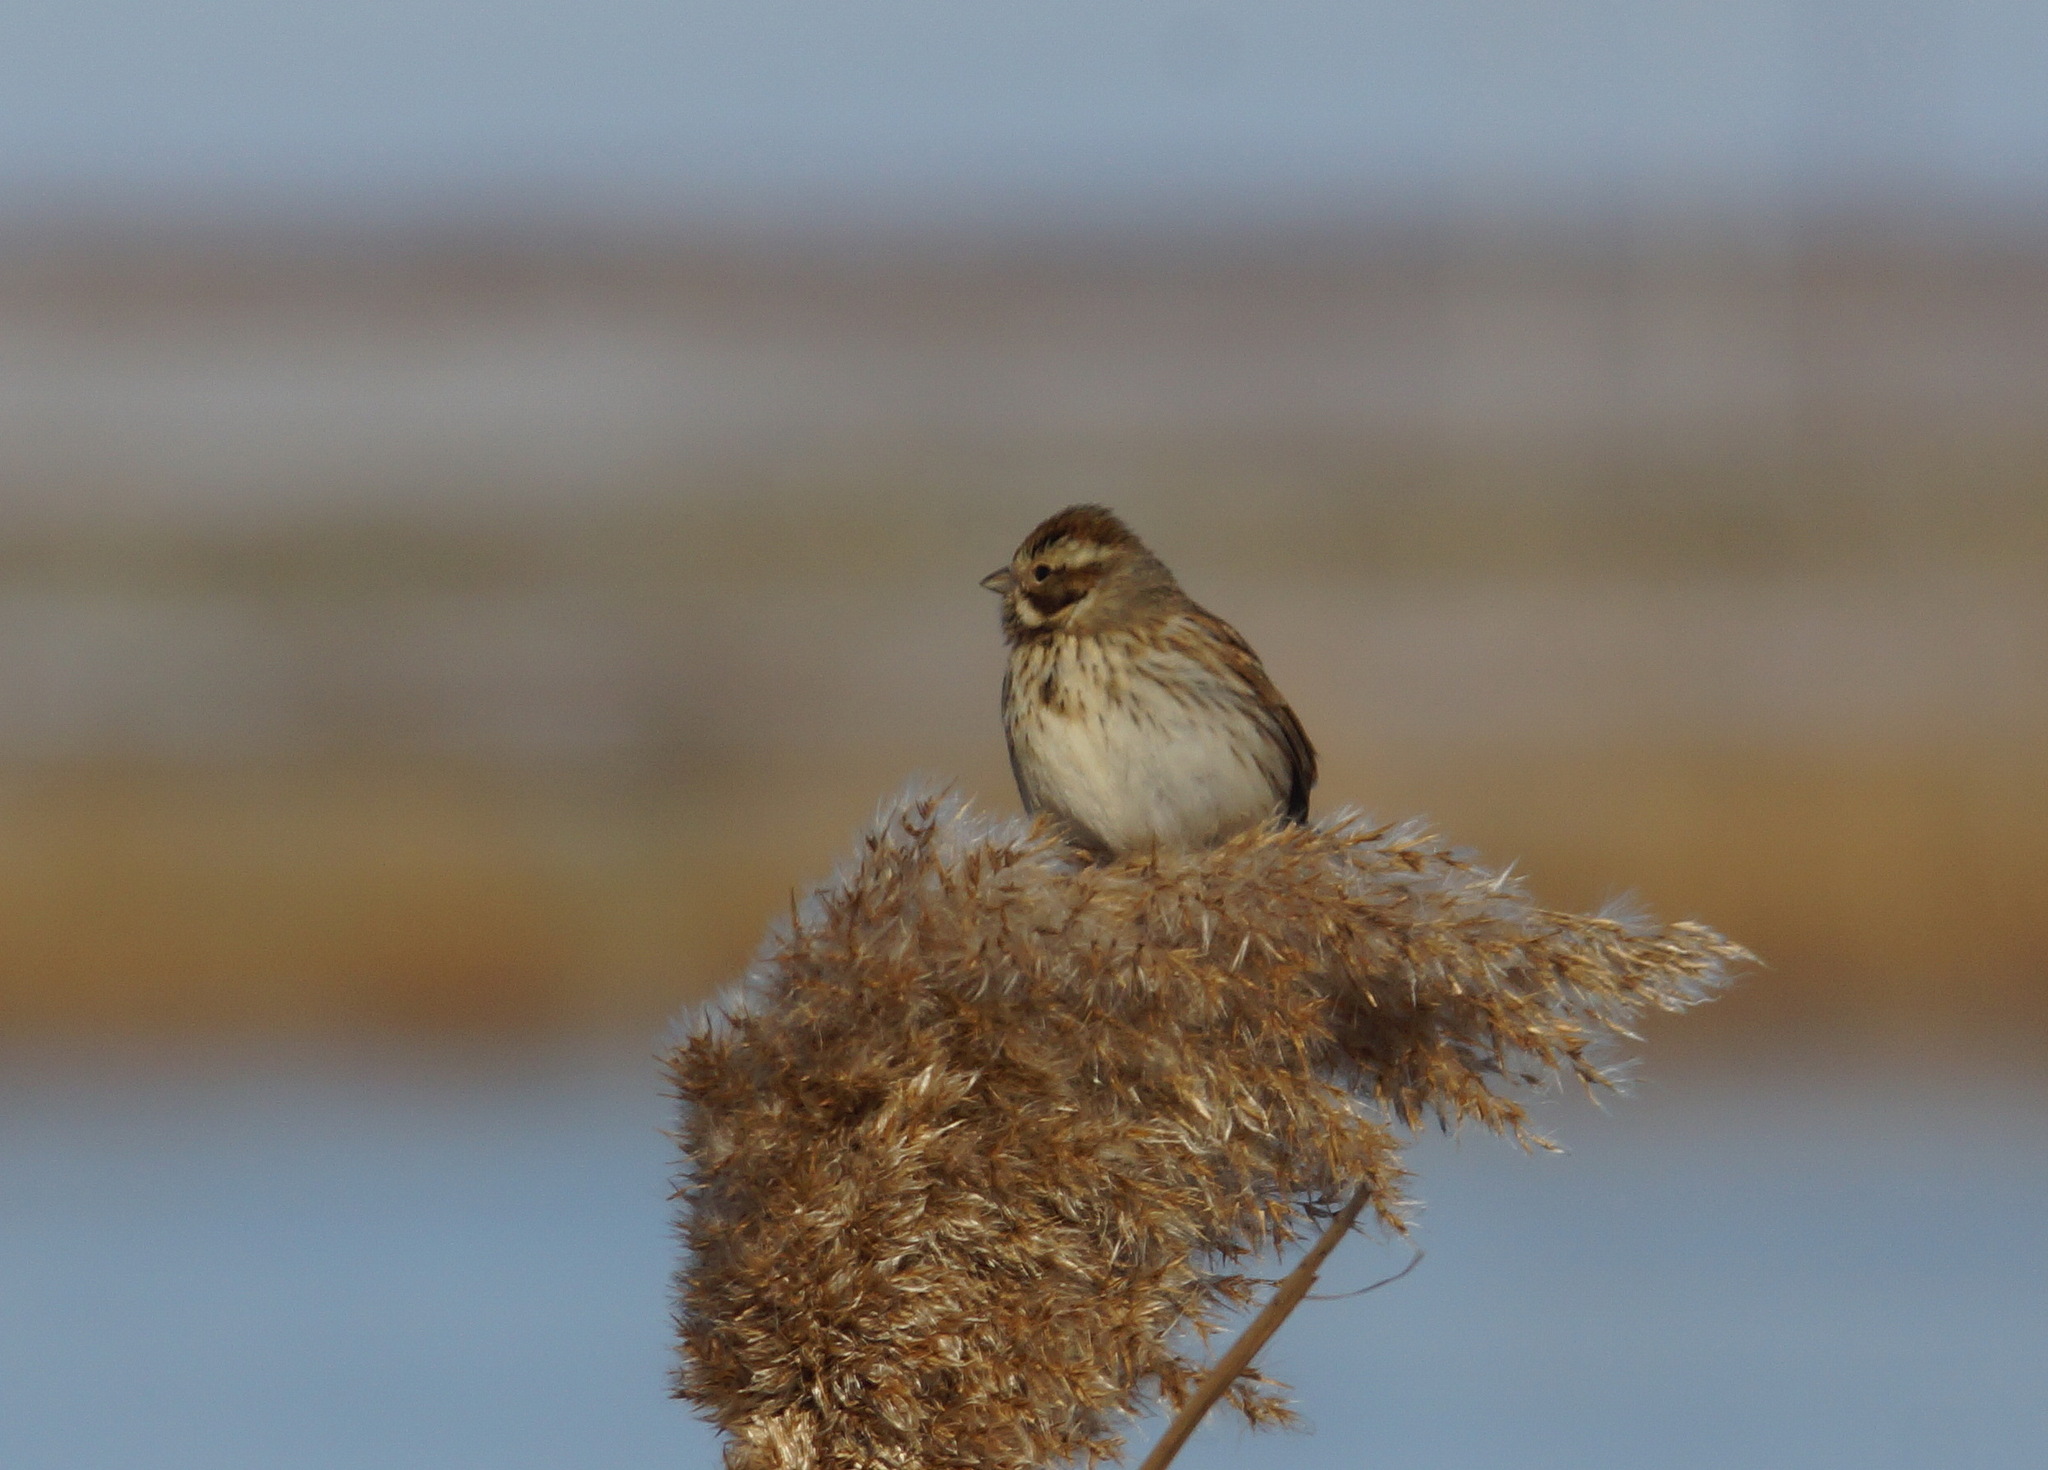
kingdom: Animalia
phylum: Chordata
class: Aves
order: Passeriformes
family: Emberizidae
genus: Emberiza
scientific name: Emberiza schoeniclus
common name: Reed bunting
